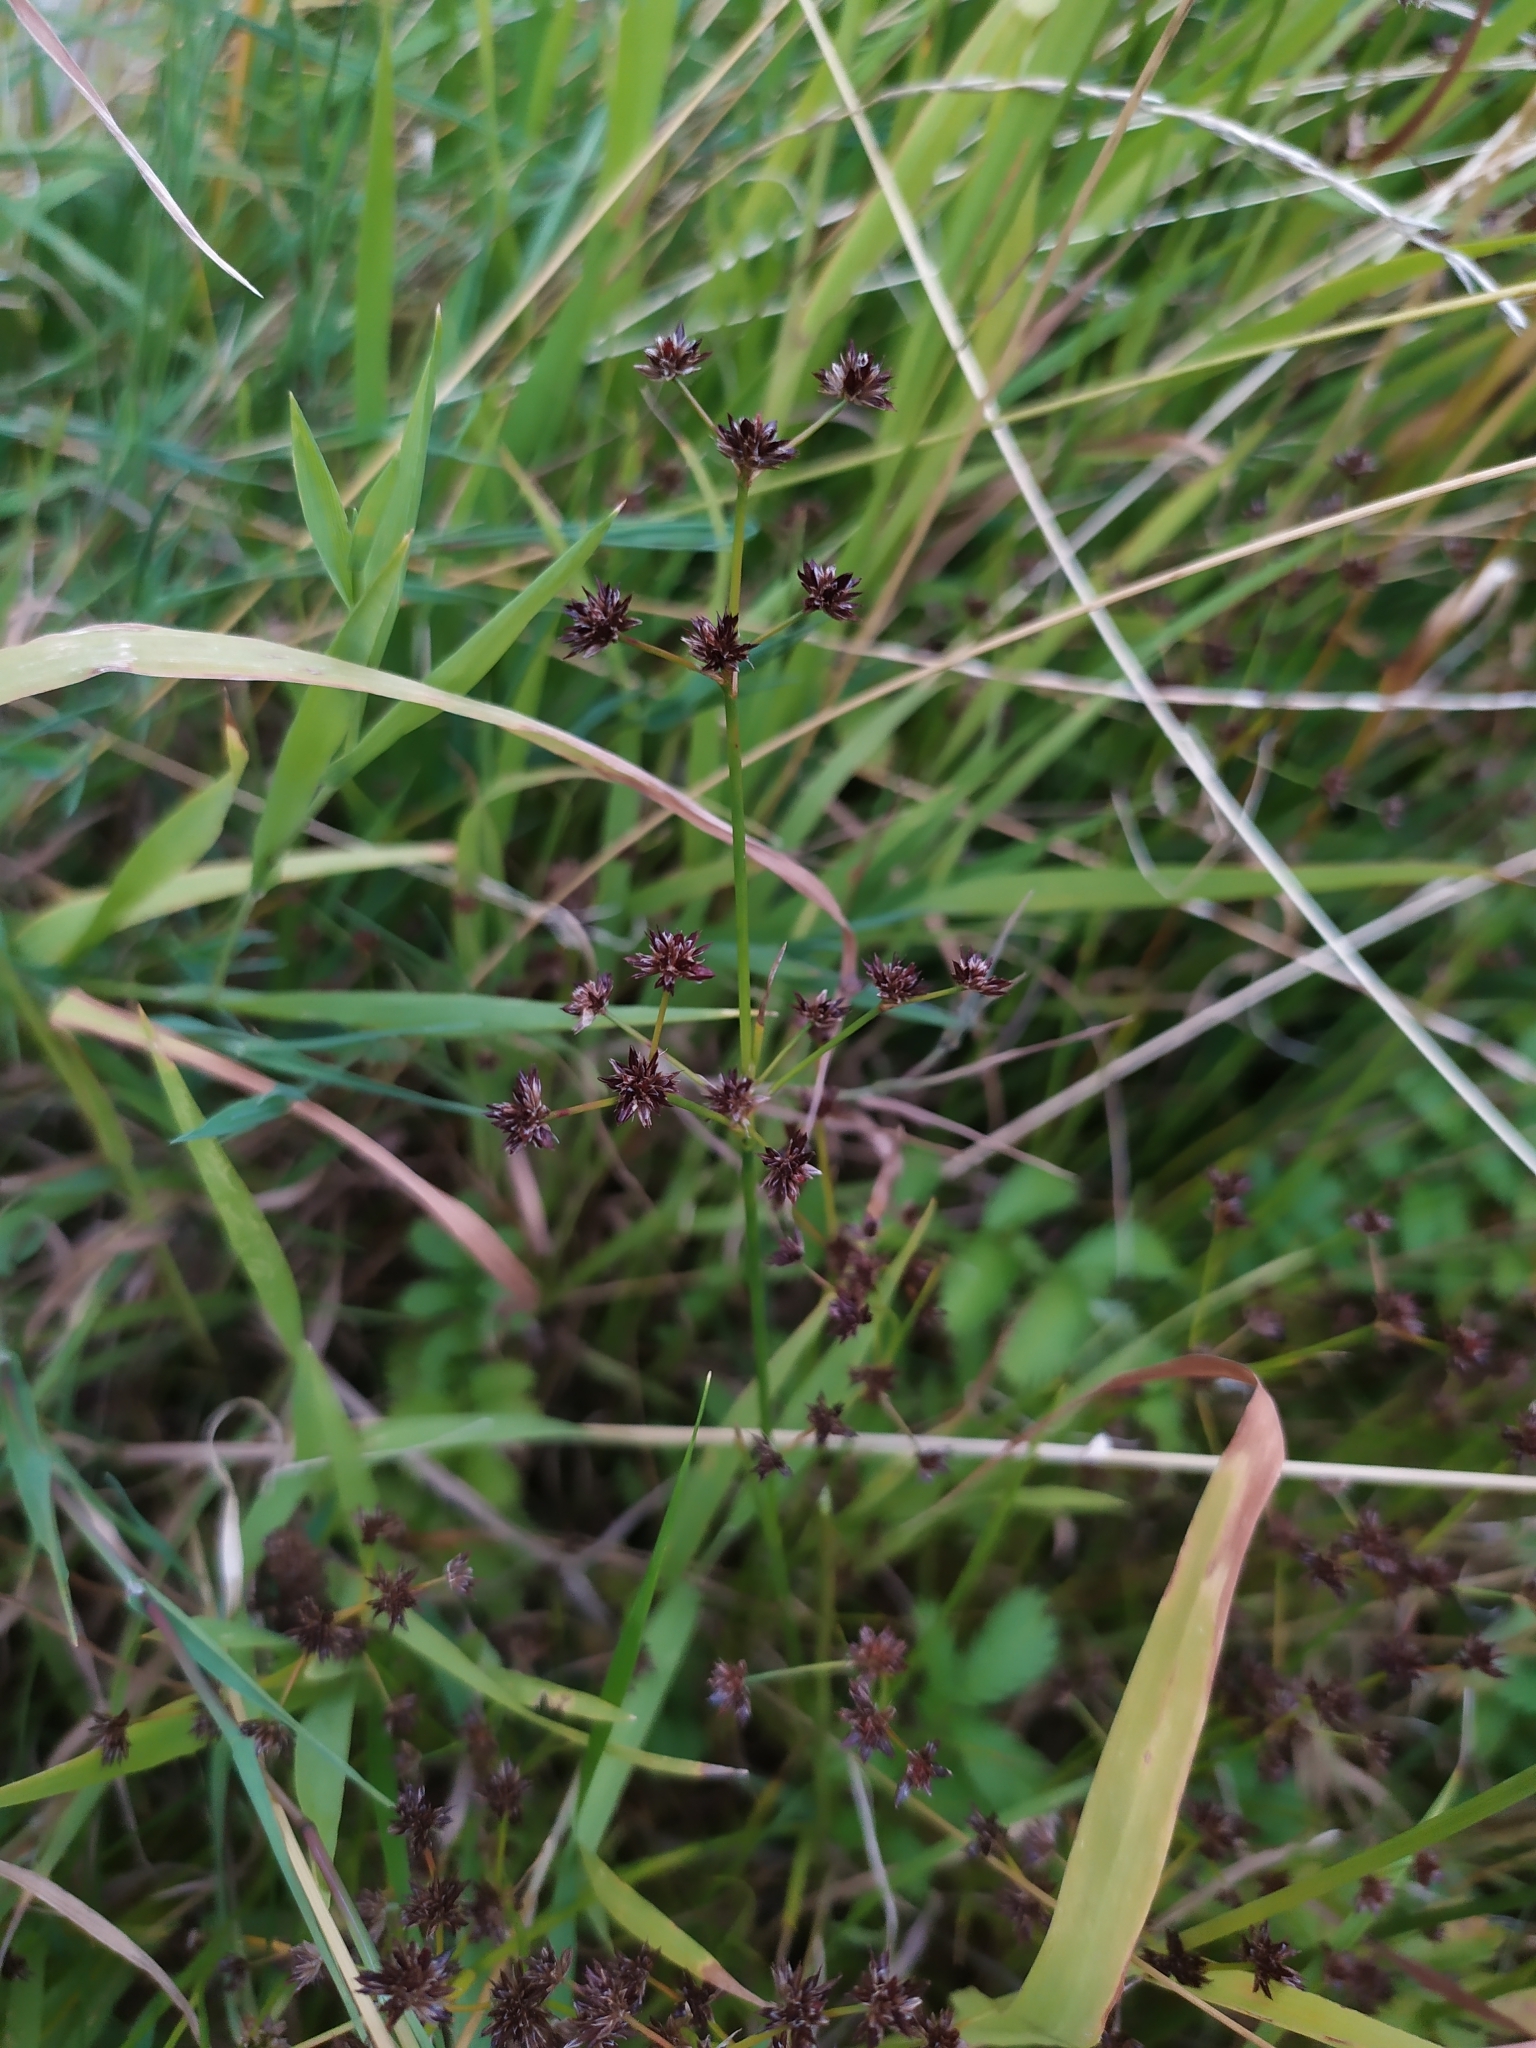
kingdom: Plantae
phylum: Tracheophyta
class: Liliopsida
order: Poales
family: Juncaceae
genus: Juncus
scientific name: Juncus articulatus
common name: Jointed rush
